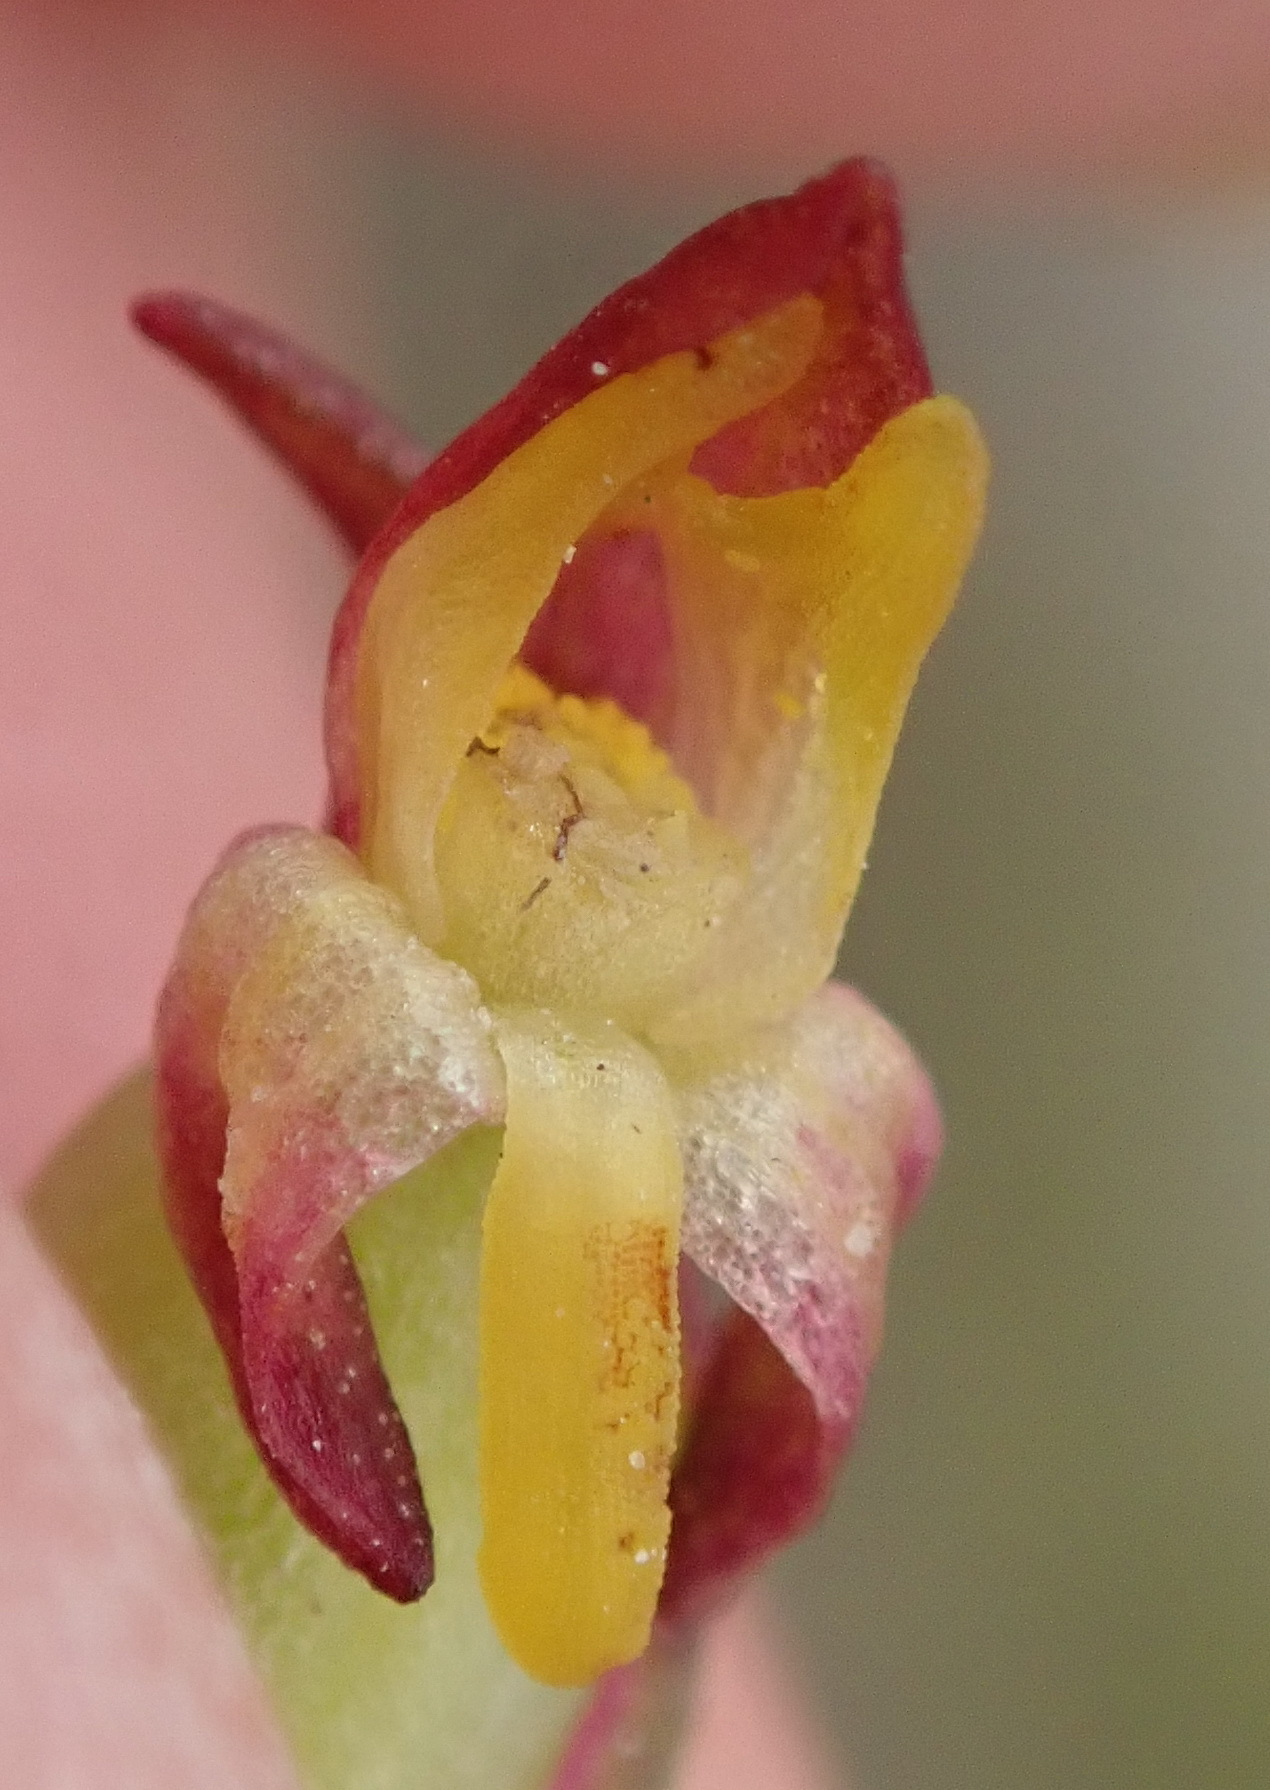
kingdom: Plantae
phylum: Tracheophyta
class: Liliopsida
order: Asparagales
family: Orchidaceae
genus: Disa
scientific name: Disa bracteata
